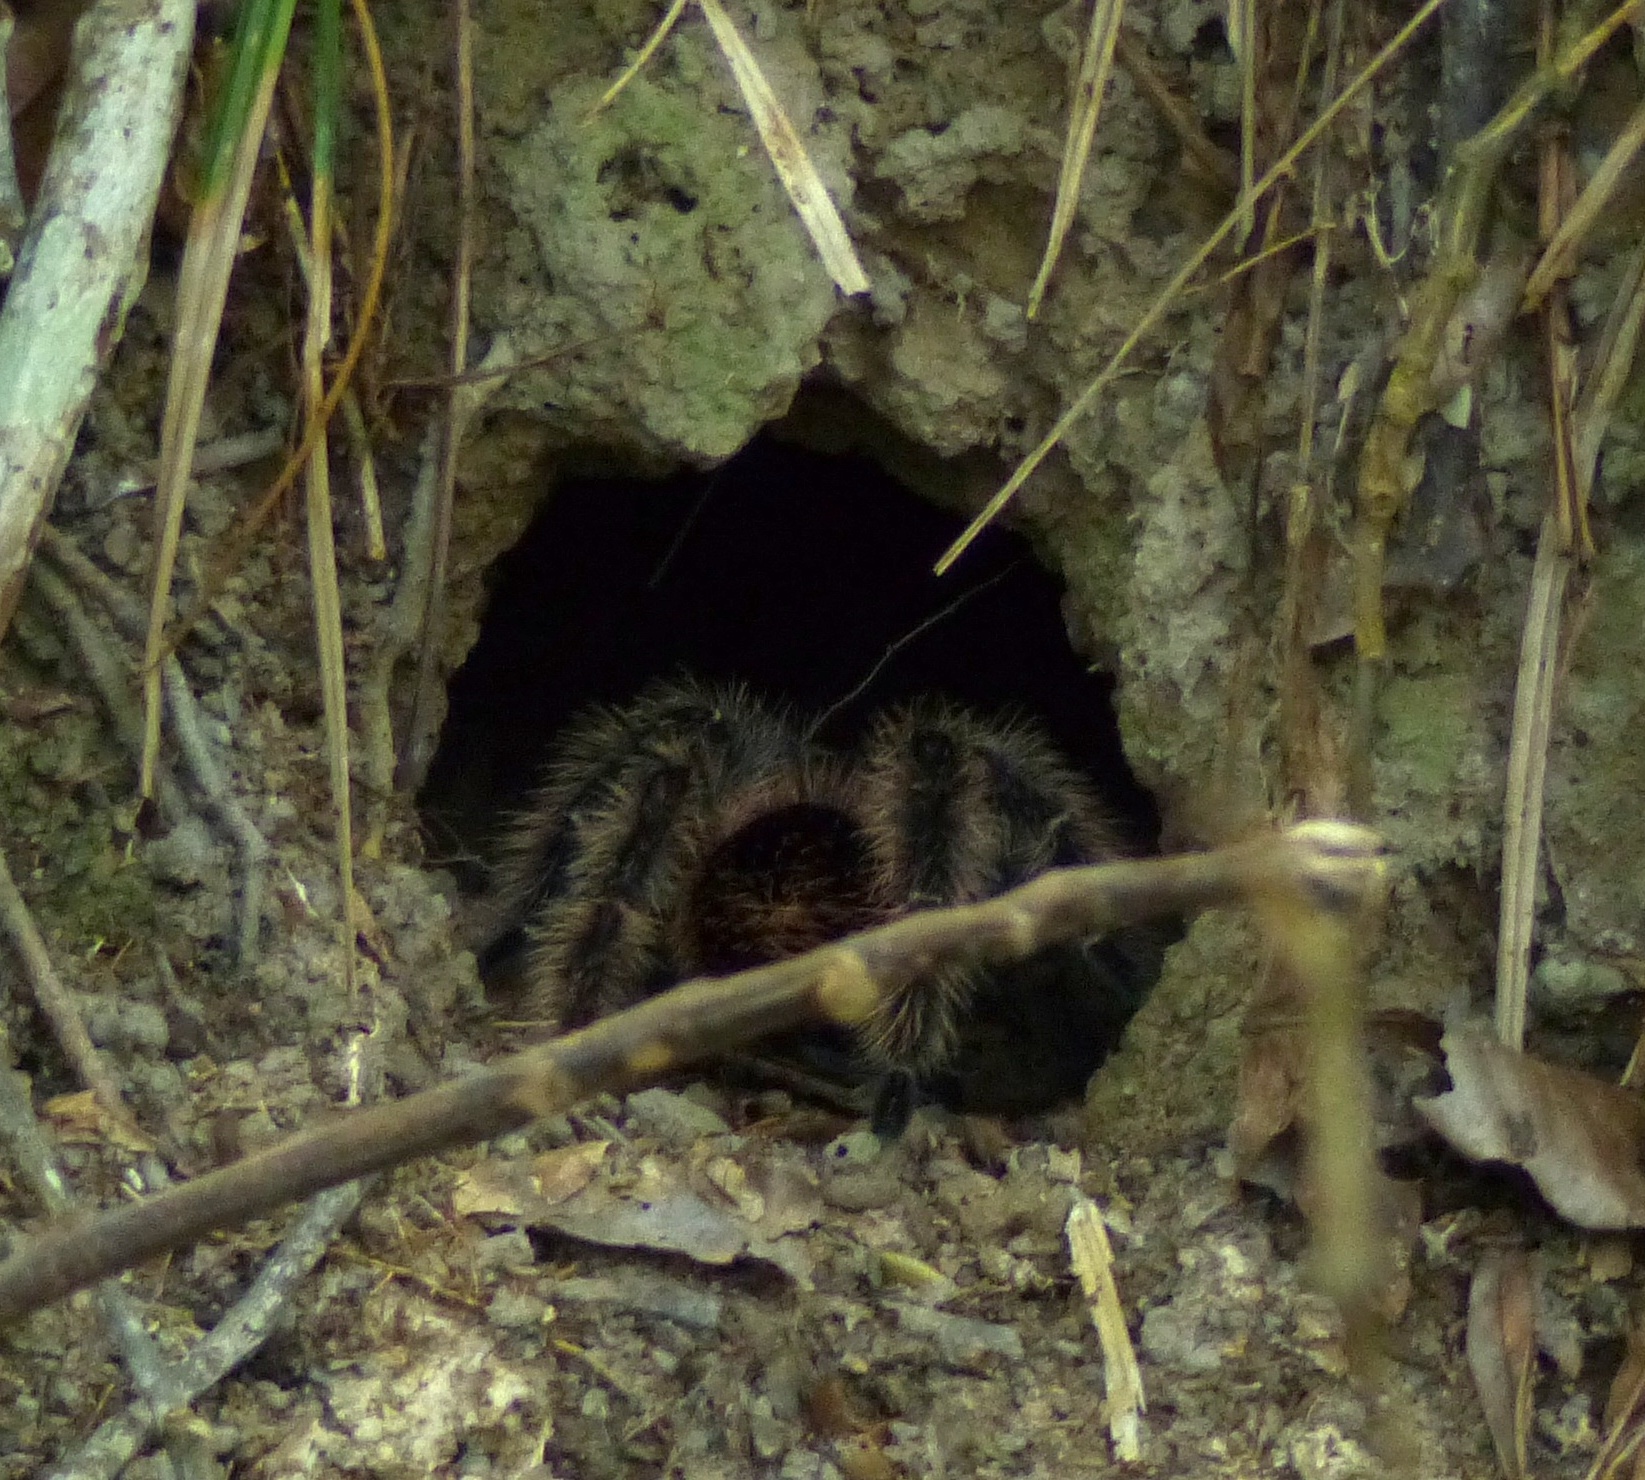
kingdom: Animalia
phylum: Arthropoda
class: Arachnida
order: Araneae
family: Theraphosidae
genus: Lasiodora
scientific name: Lasiodora parahybana
